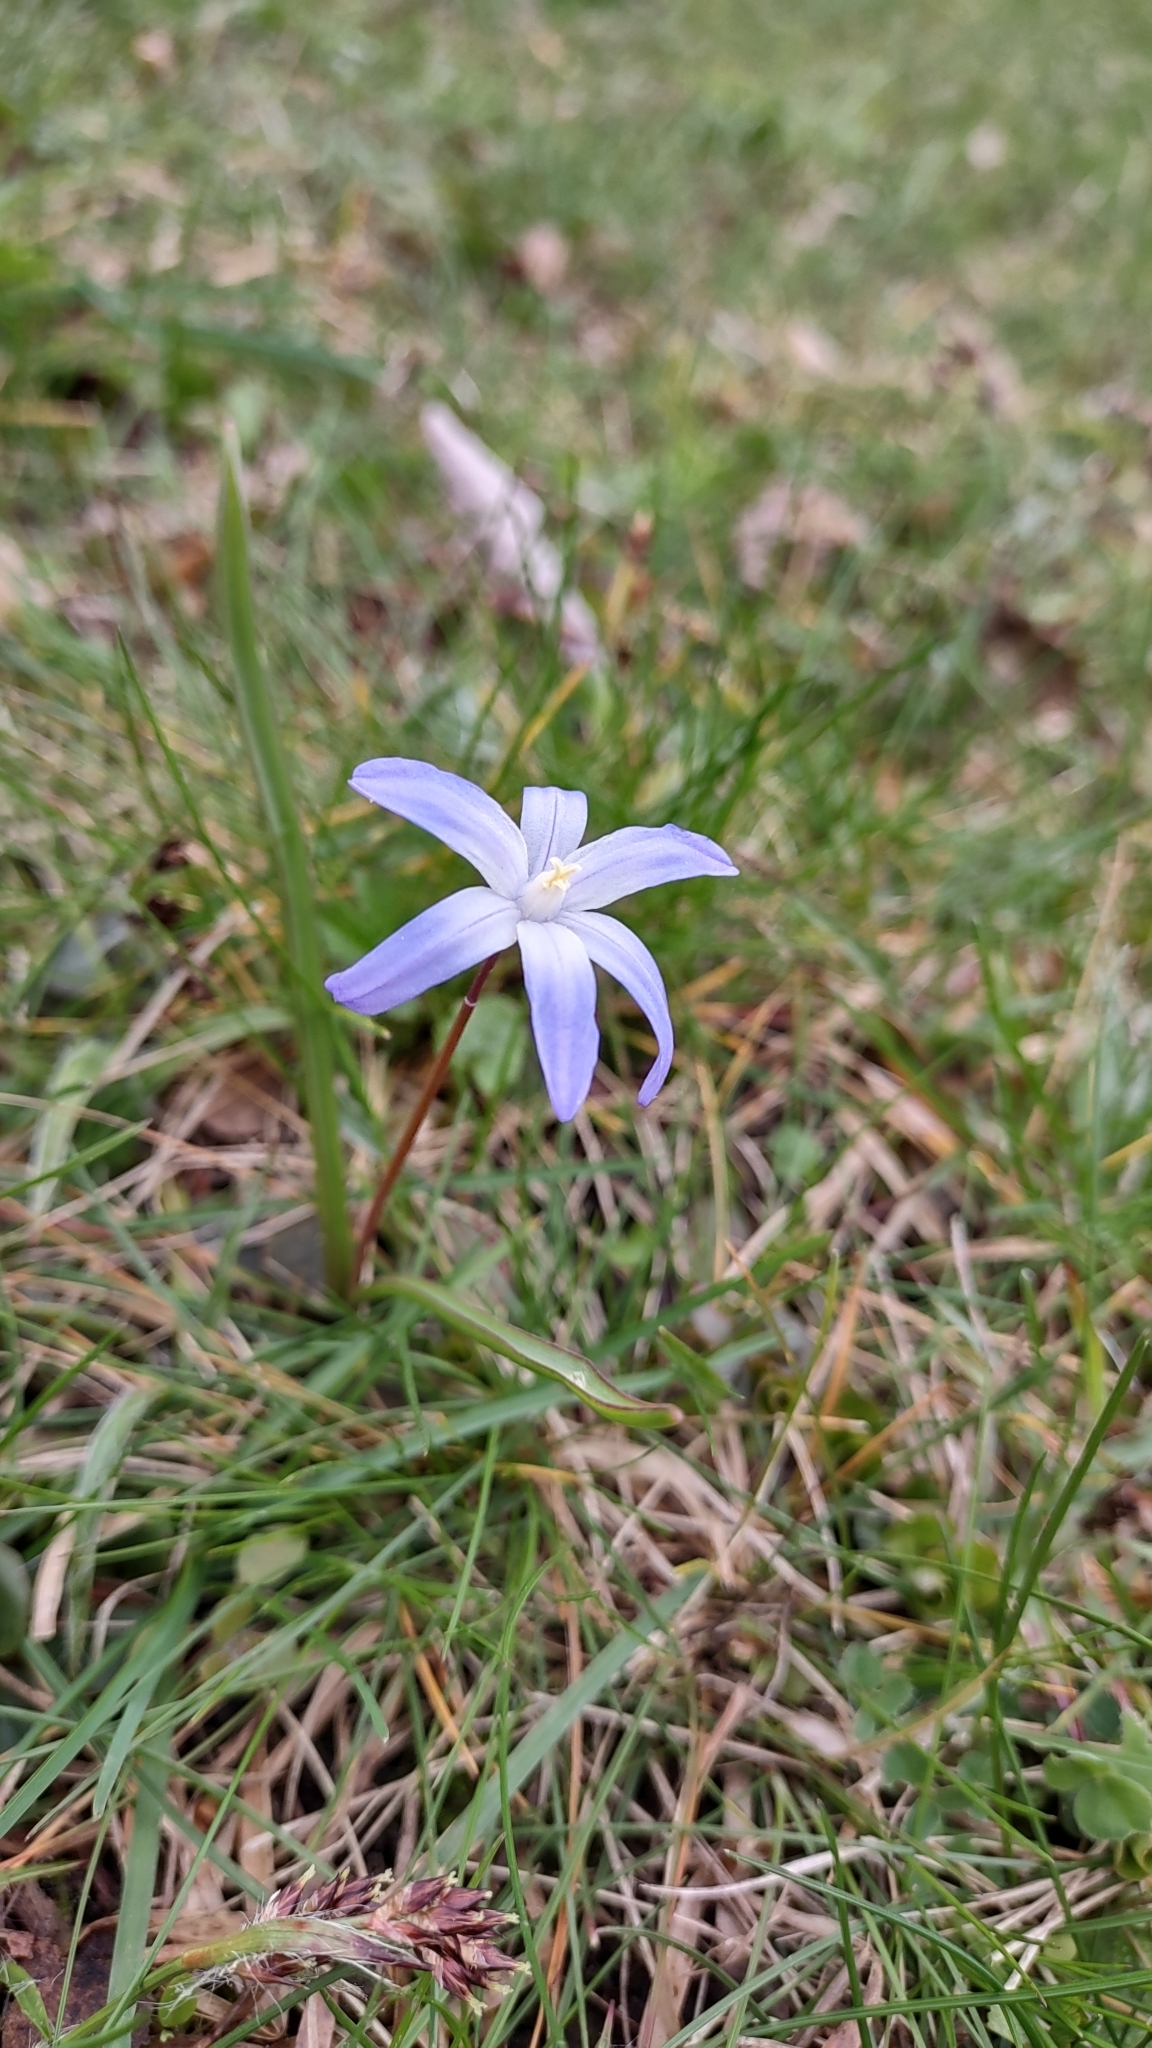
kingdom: Plantae
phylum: Tracheophyta
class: Liliopsida
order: Asparagales
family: Asparagaceae
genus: Scilla
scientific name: Scilla luciliae
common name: Boissier's glory-of-the-snow
